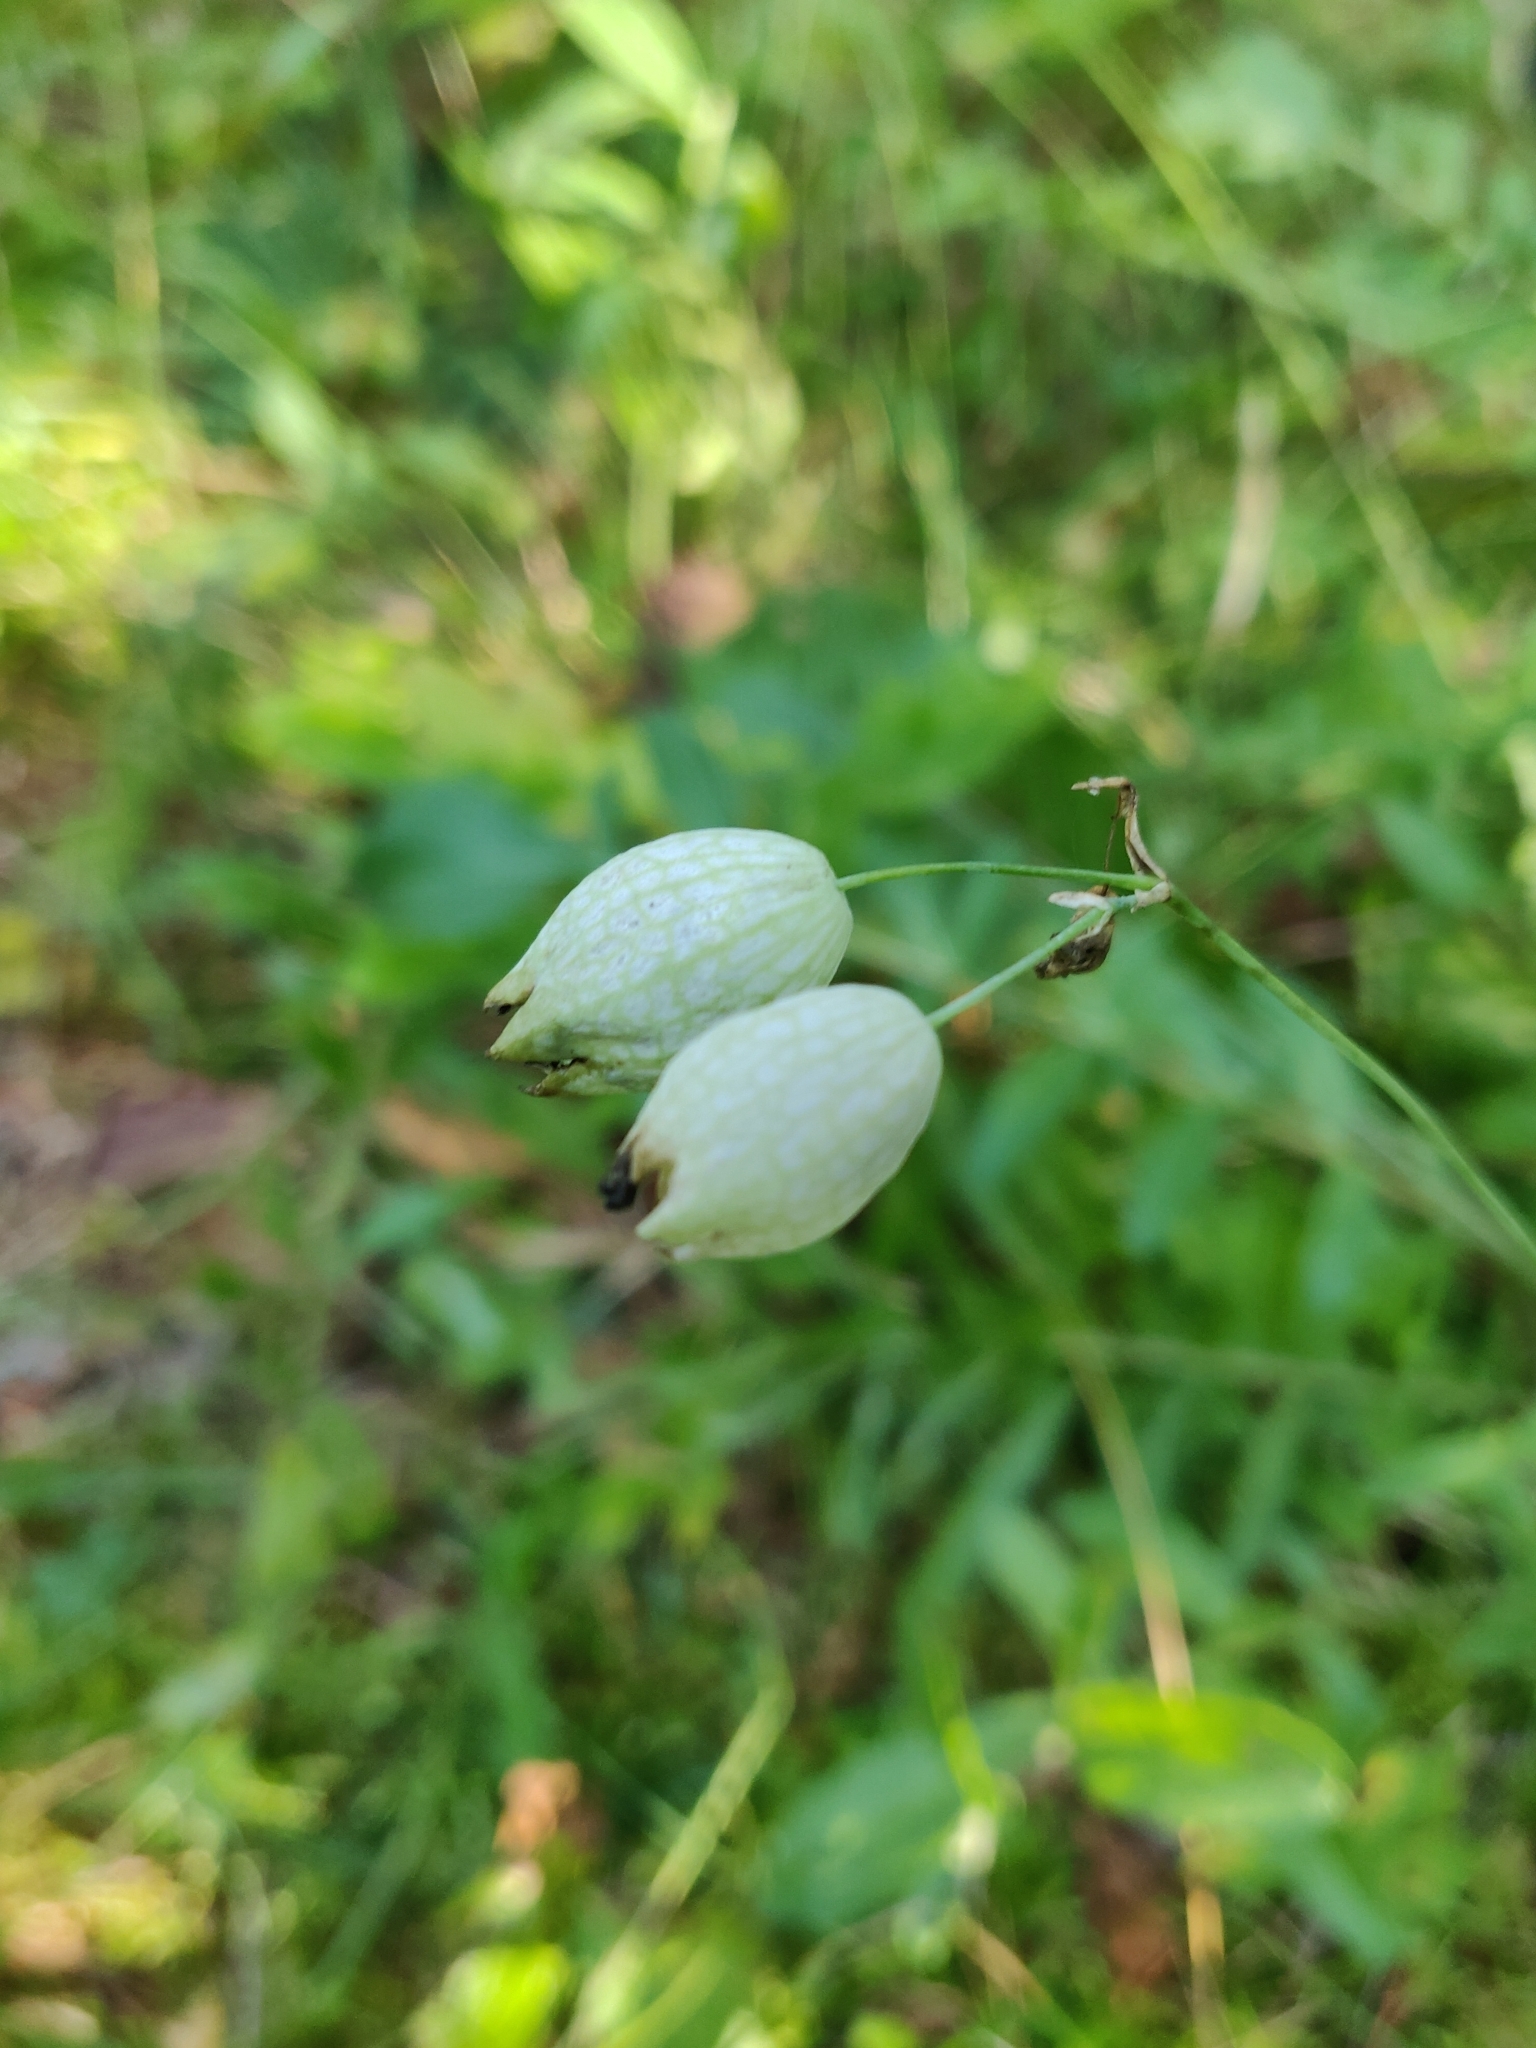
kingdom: Plantae
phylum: Tracheophyta
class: Magnoliopsida
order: Caryophyllales
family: Caryophyllaceae
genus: Silene
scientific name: Silene vulgaris
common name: Bladder campion
